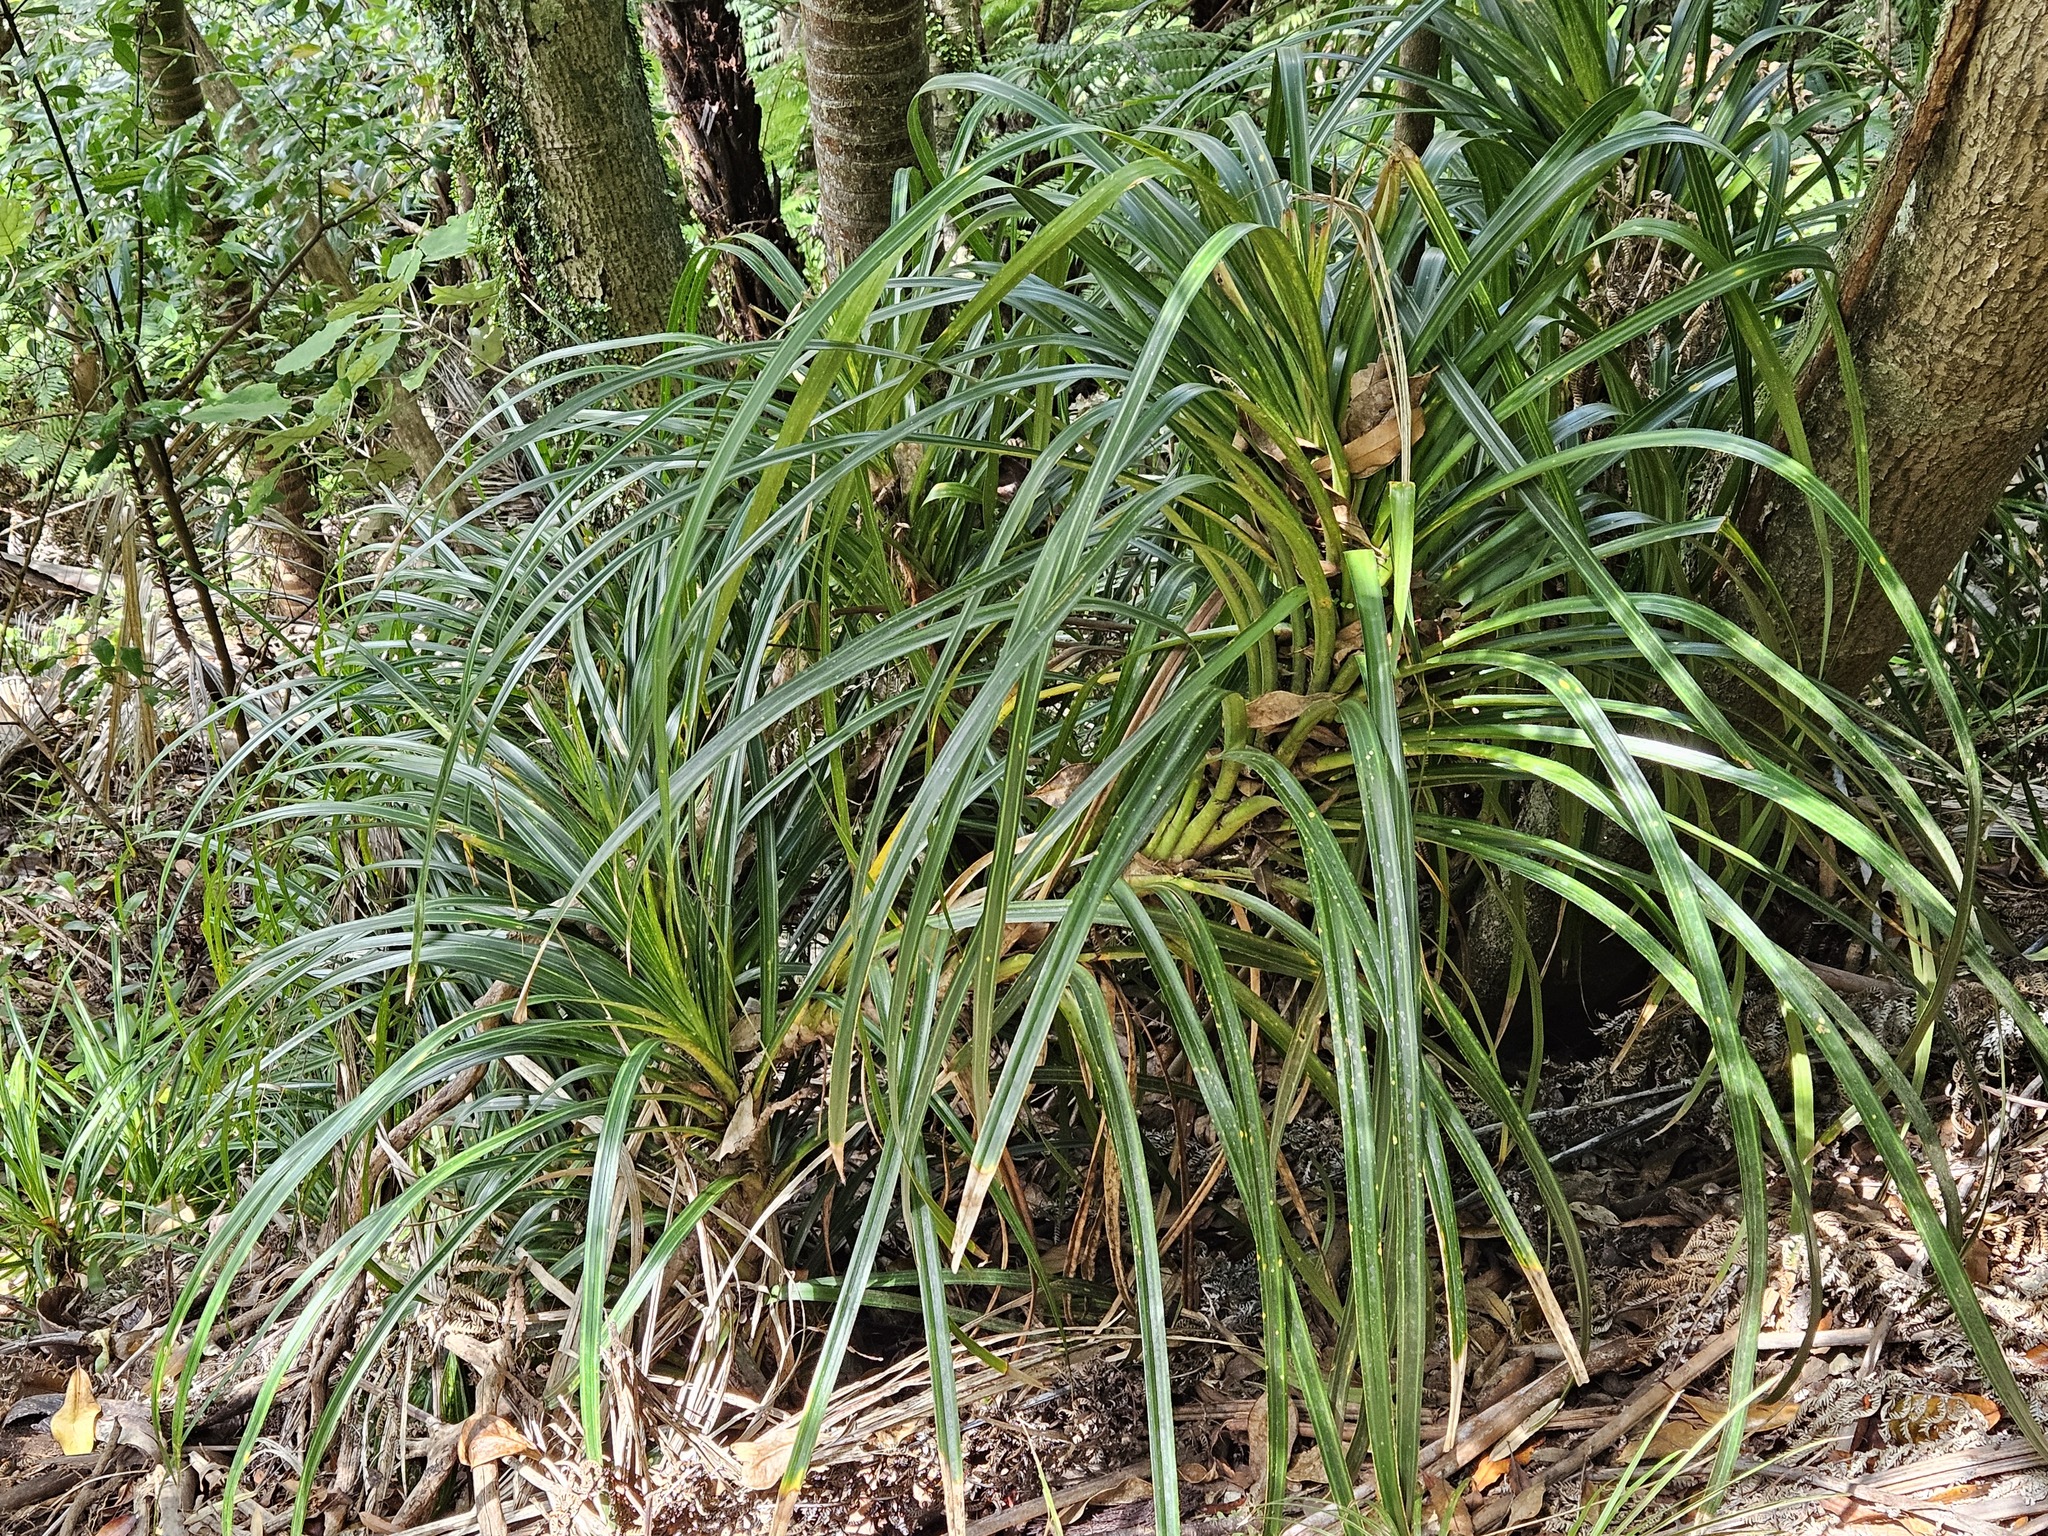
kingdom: Plantae
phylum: Tracheophyta
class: Liliopsida
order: Pandanales
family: Pandanaceae
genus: Freycinetia
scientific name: Freycinetia banksii
